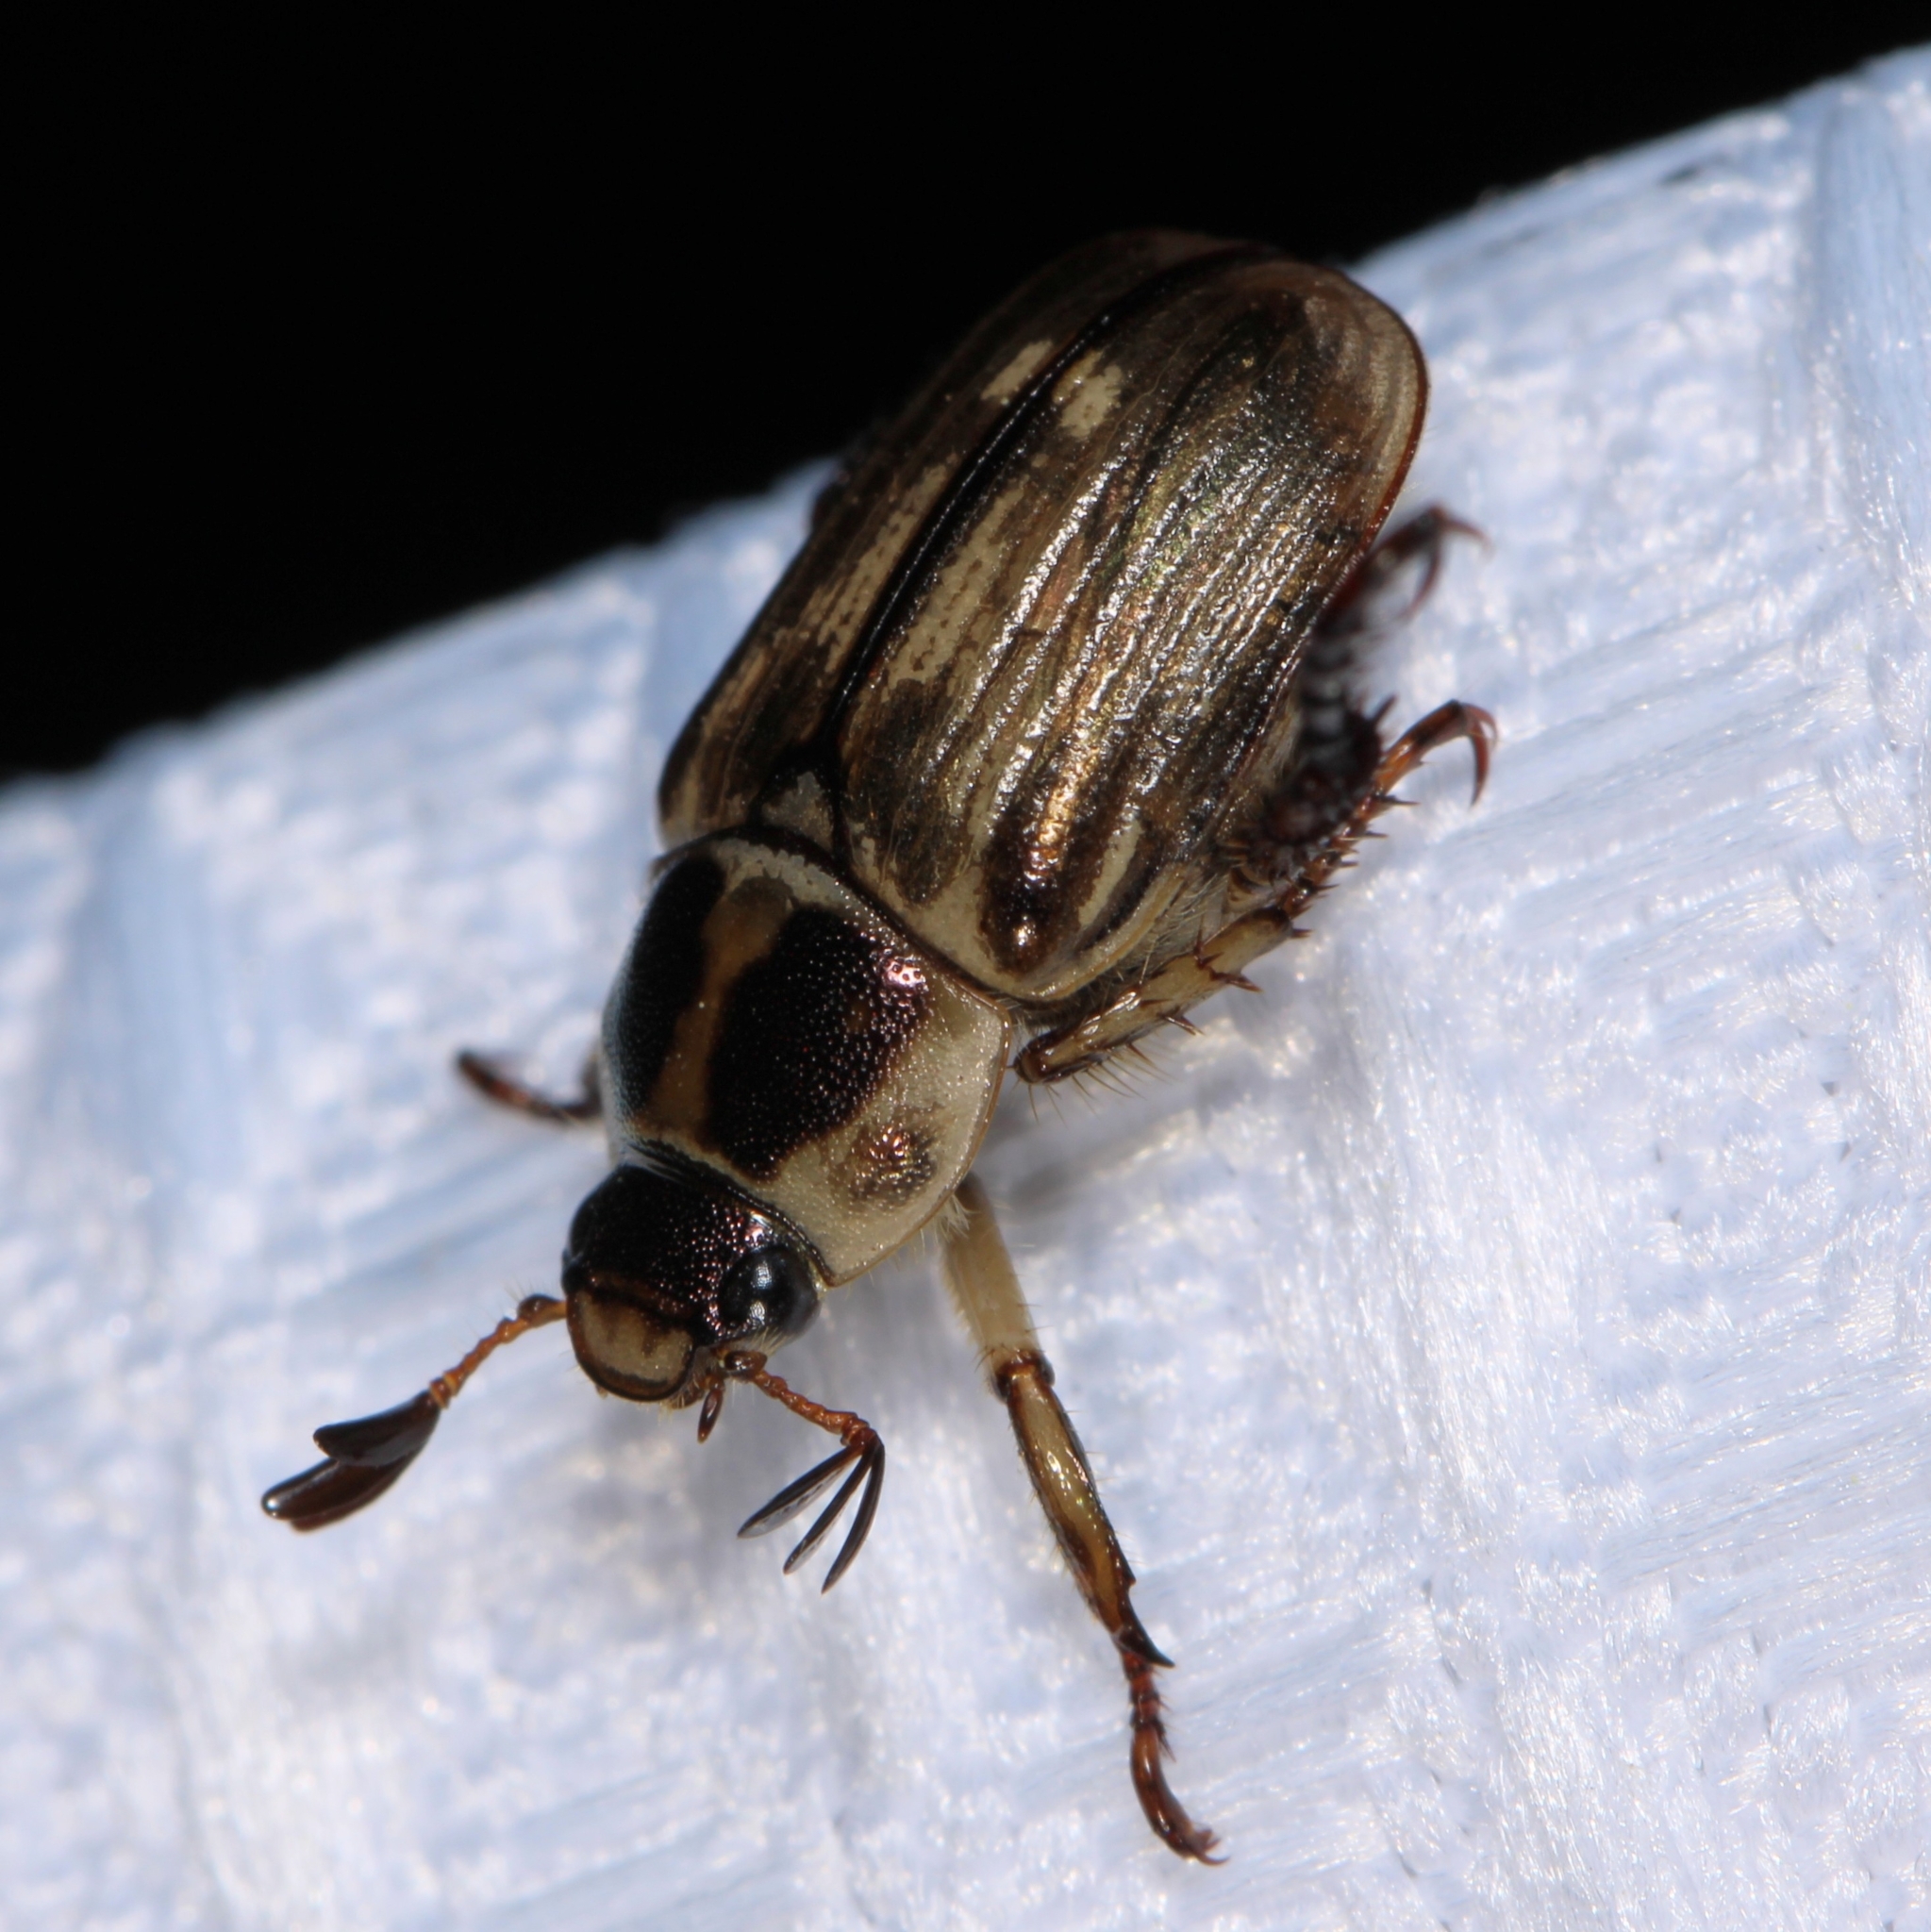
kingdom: Animalia
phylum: Arthropoda
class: Insecta
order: Coleoptera
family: Scarabaeidae
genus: Exomala
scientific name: Exomala orientalis
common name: Oriental beetle
